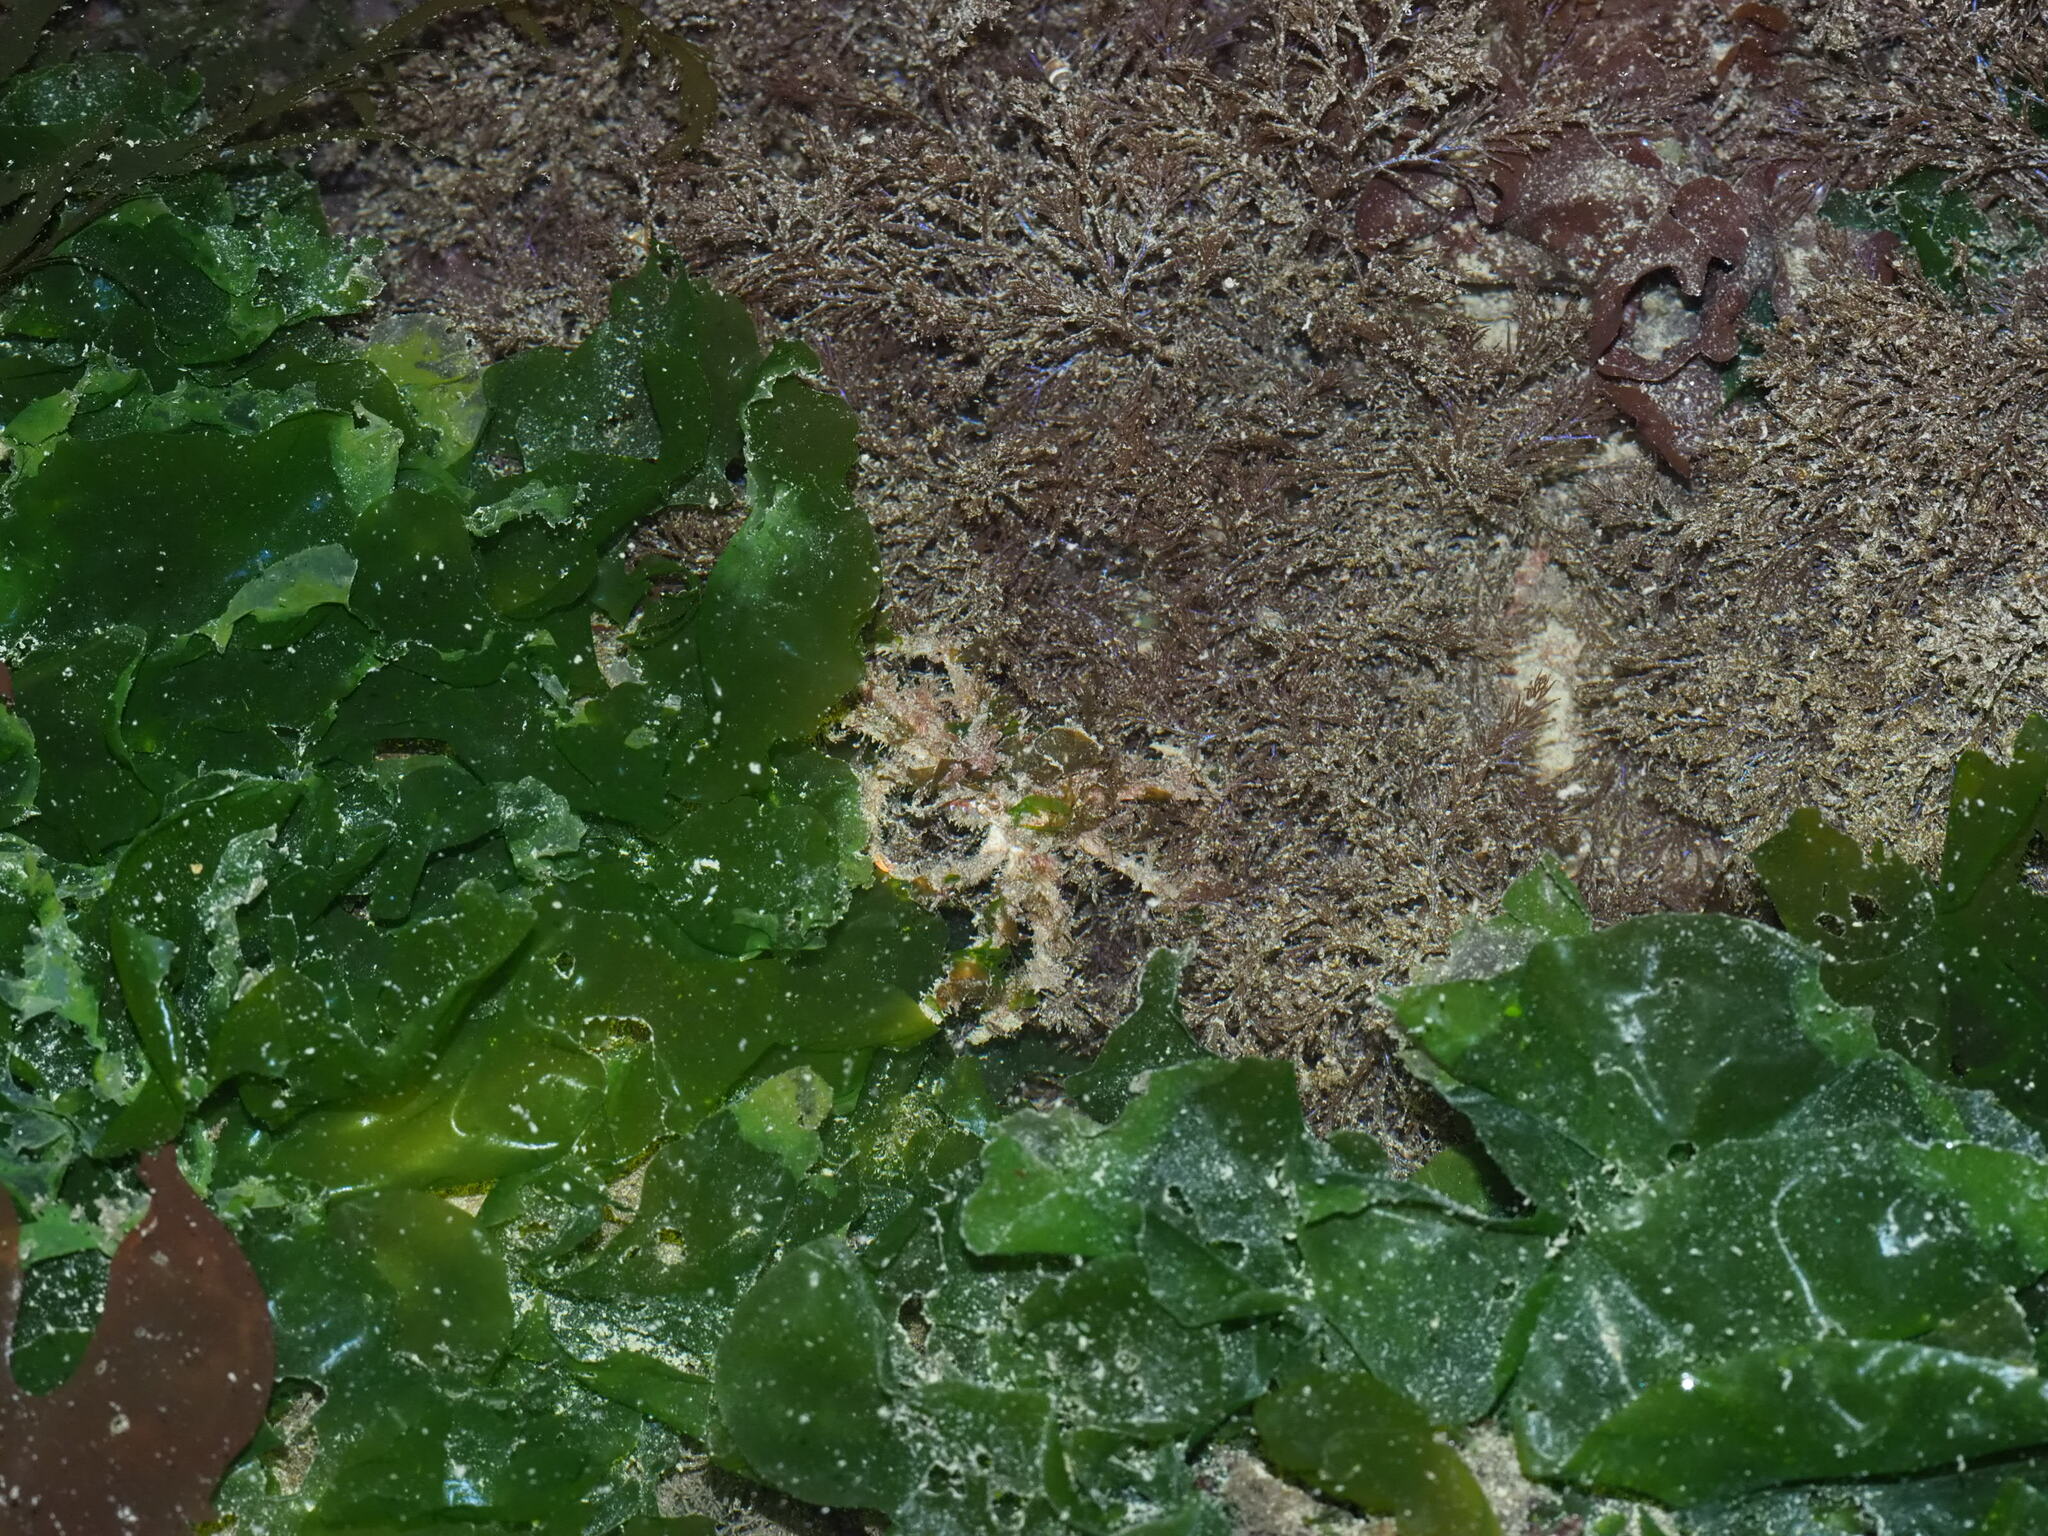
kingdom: Animalia
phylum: Arthropoda
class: Malacostraca
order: Decapoda
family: Oregoniidae
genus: Oregonia
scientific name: Oregonia gracilis
